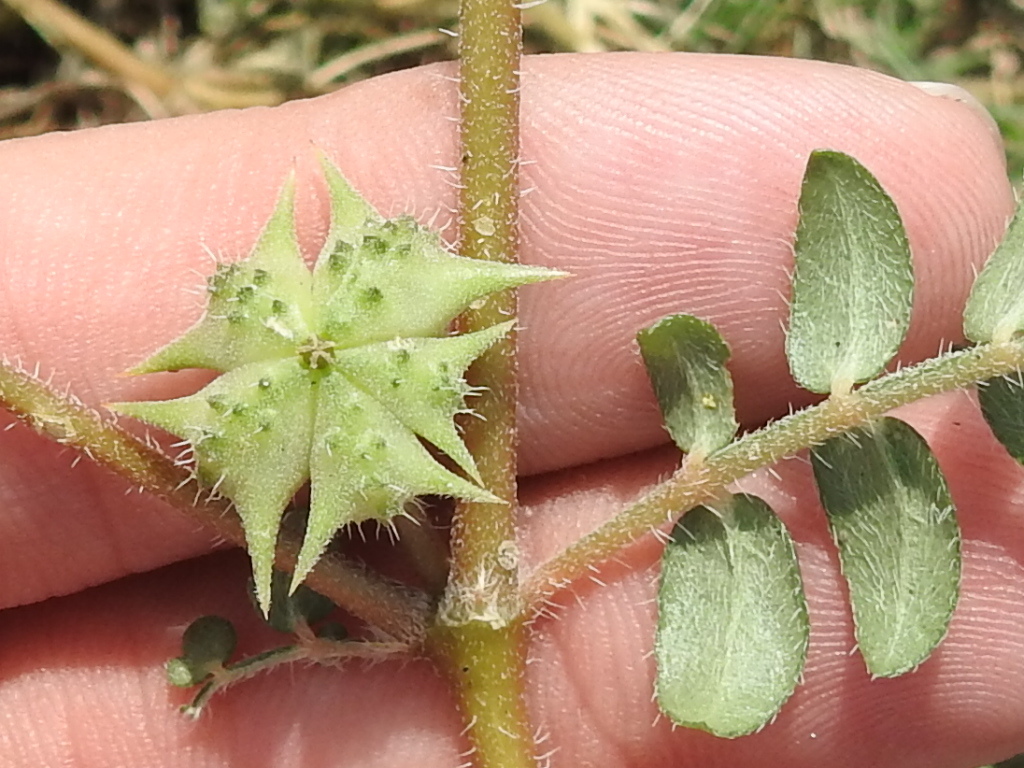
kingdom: Plantae
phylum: Tracheophyta
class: Magnoliopsida
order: Zygophyllales
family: Zygophyllaceae
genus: Tribulus
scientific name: Tribulus terrestris
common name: Puncturevine
